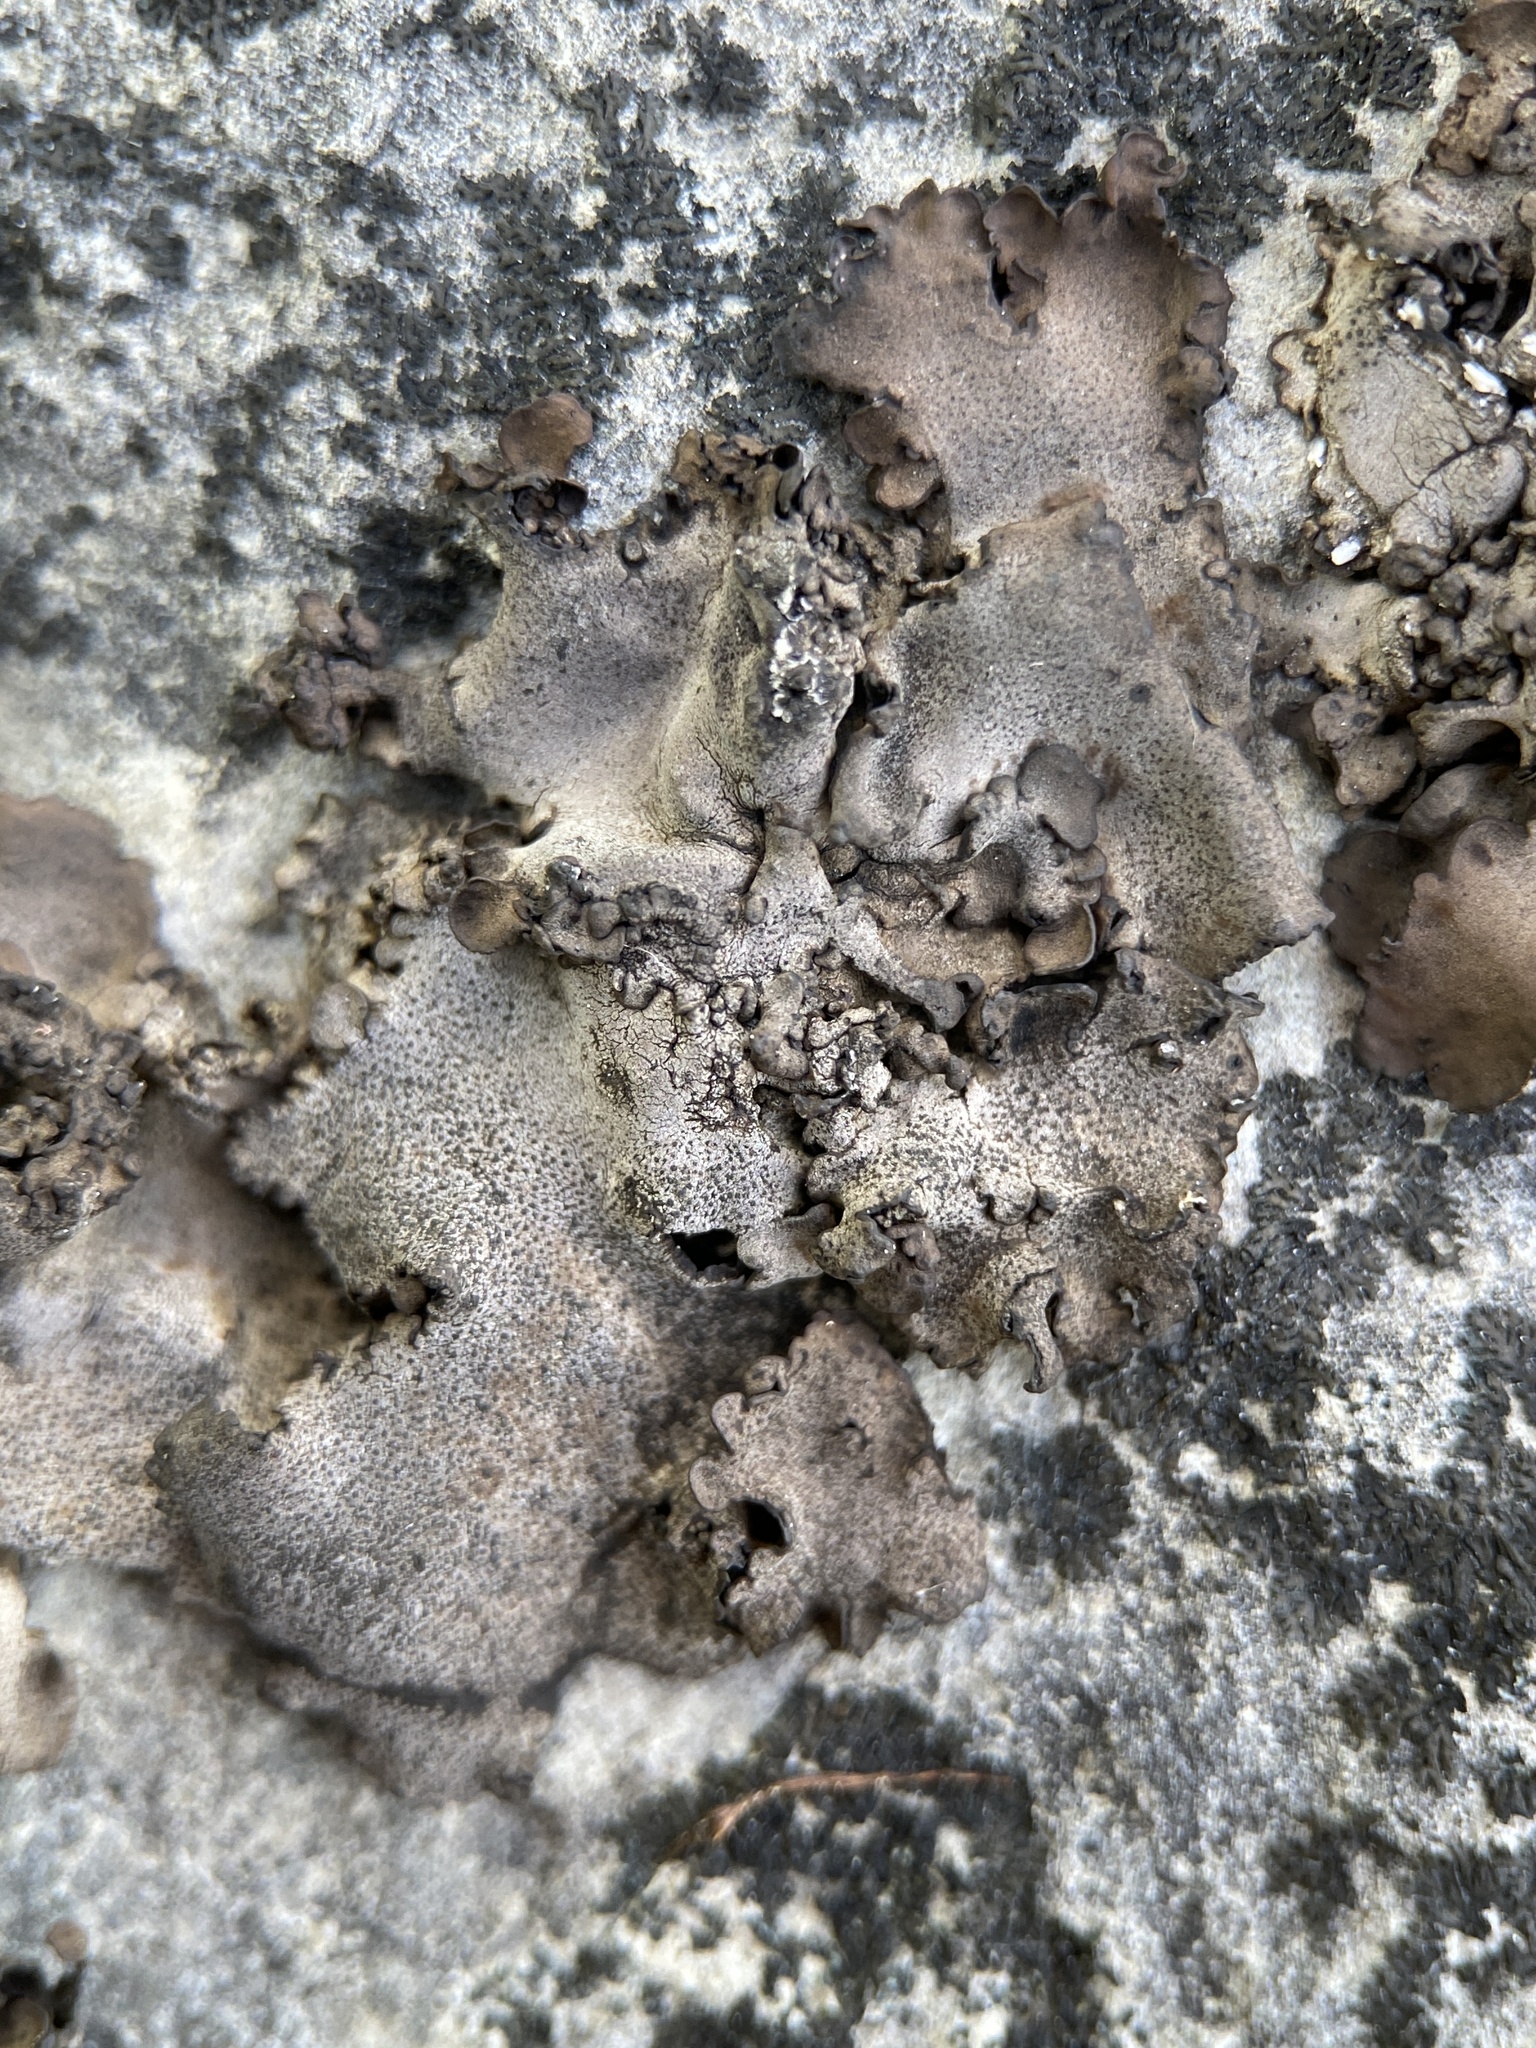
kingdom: Fungi
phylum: Ascomycota
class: Eurotiomycetes
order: Verrucariales
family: Verrucariaceae
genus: Dermatocarpon
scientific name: Dermatocarpon dolomiticum
